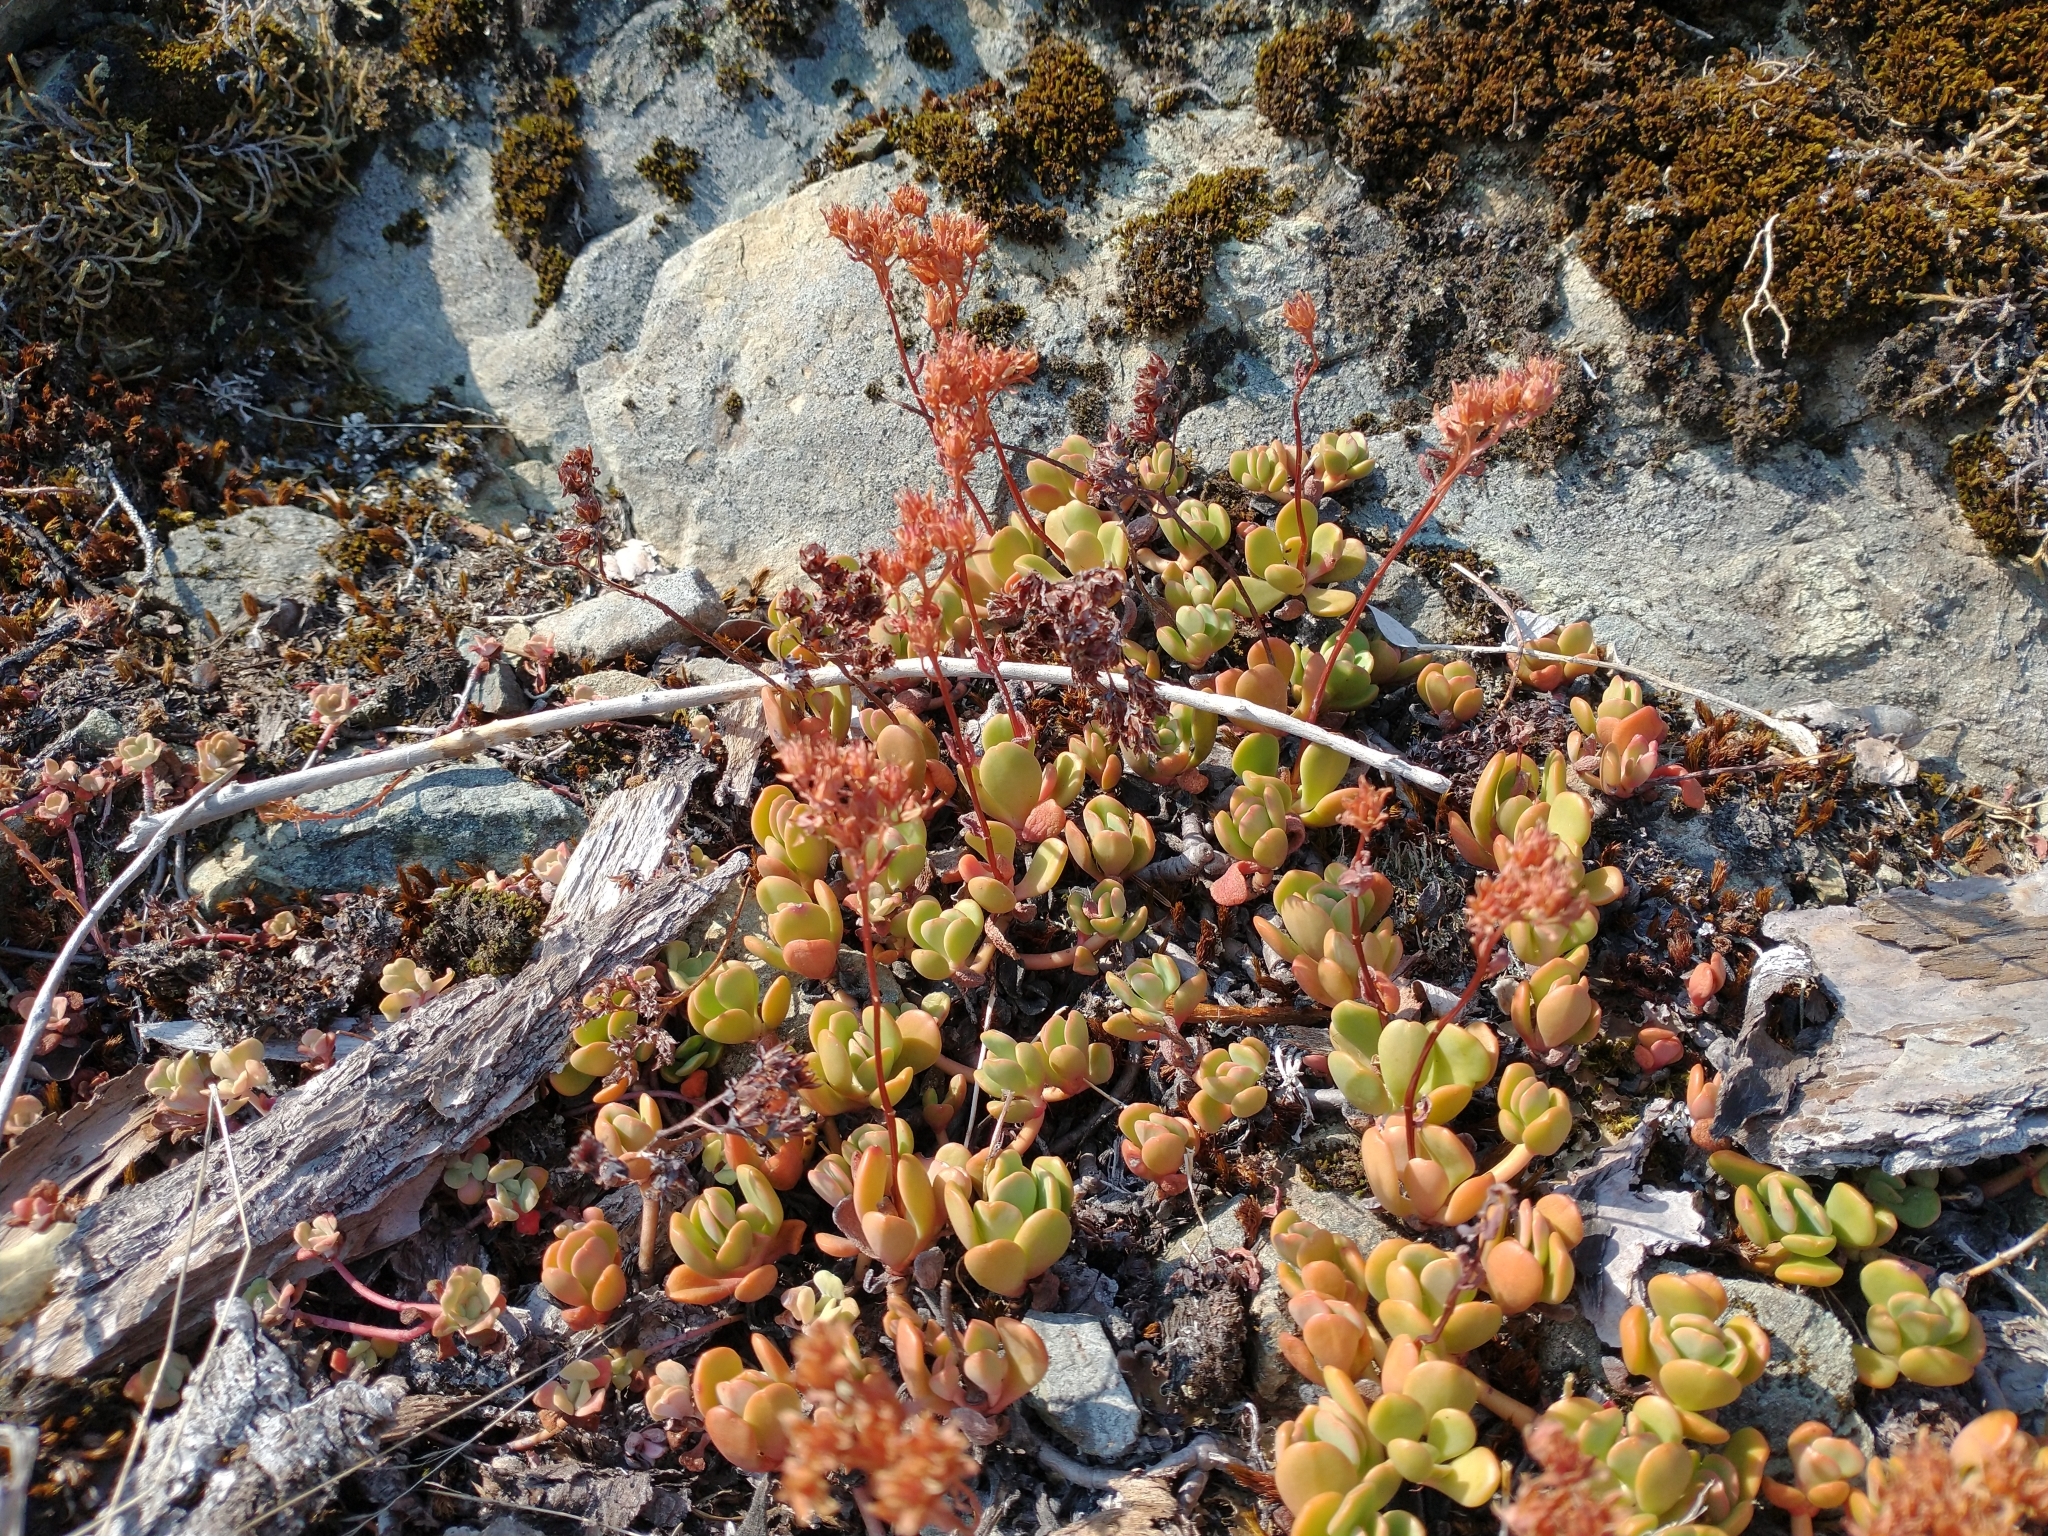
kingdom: Plantae
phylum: Tracheophyta
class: Magnoliopsida
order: Saxifragales
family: Crassulaceae
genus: Sedum
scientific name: Sedum laxum
